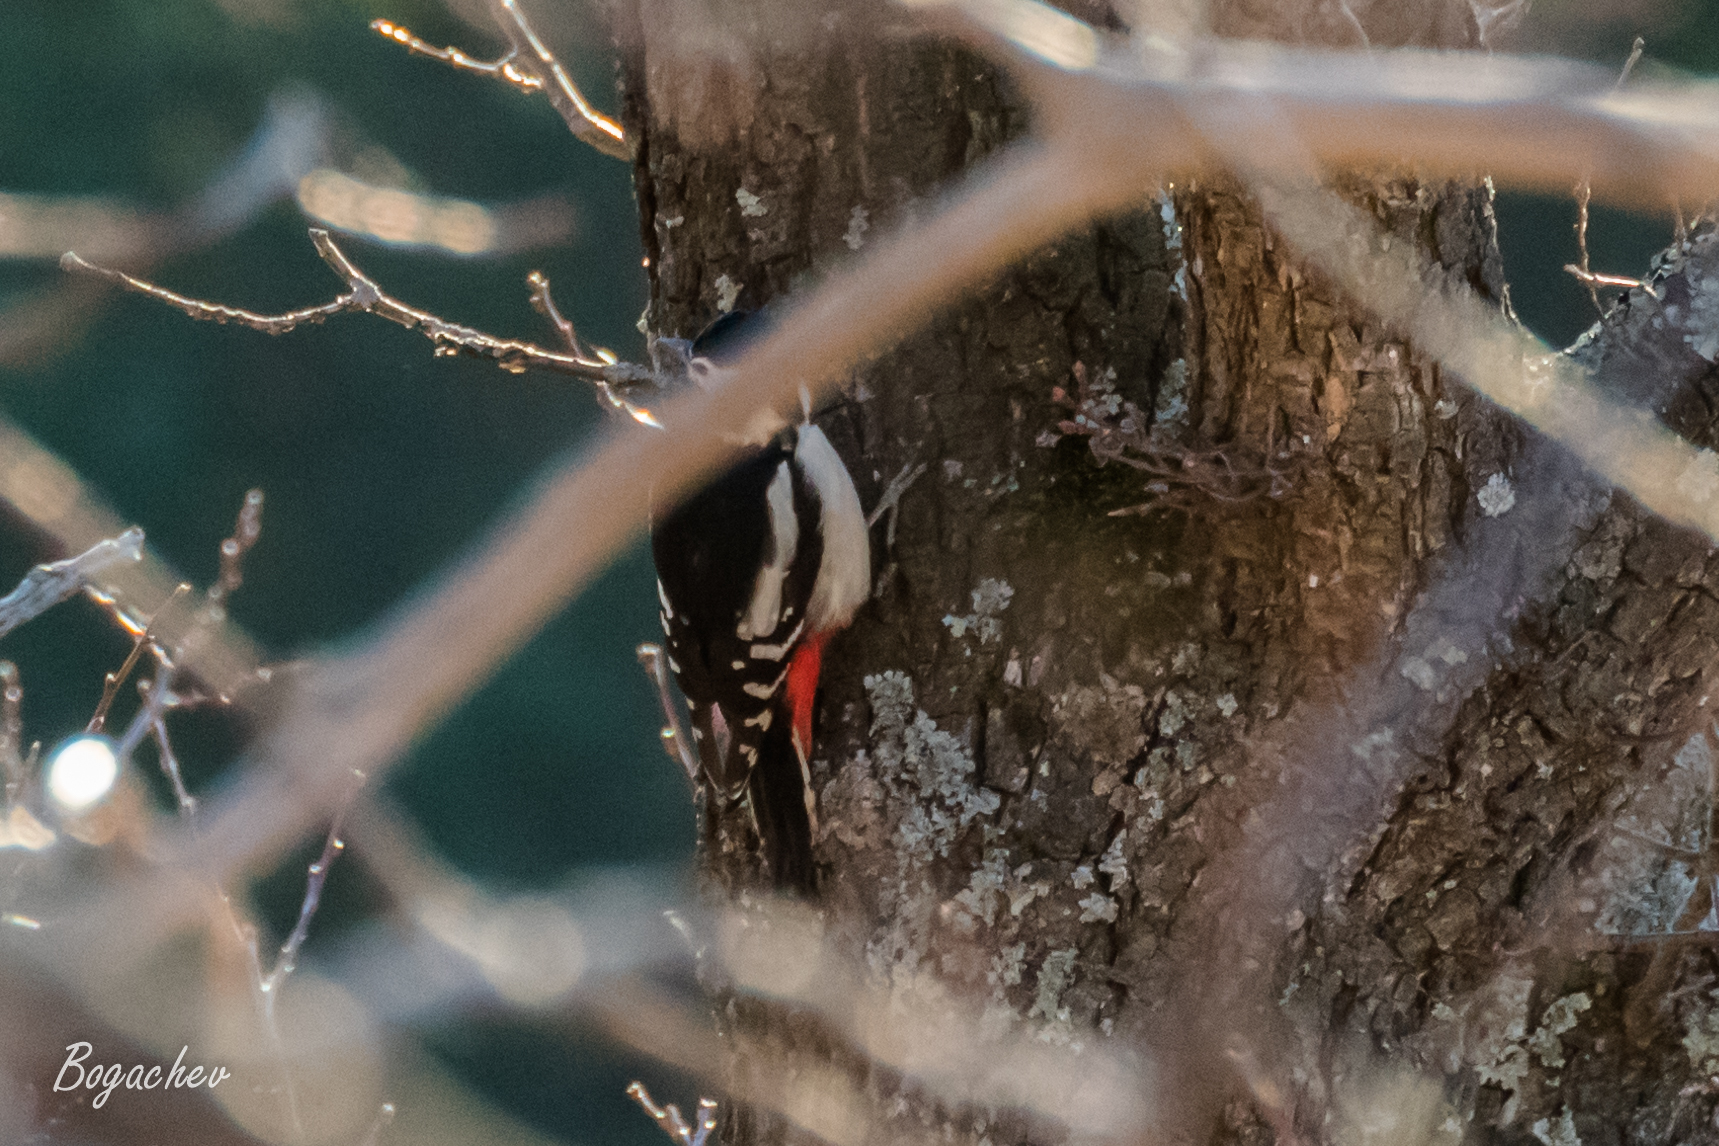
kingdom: Animalia
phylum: Chordata
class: Aves
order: Piciformes
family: Picidae
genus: Dendrocopos
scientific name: Dendrocopos major
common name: Great spotted woodpecker
